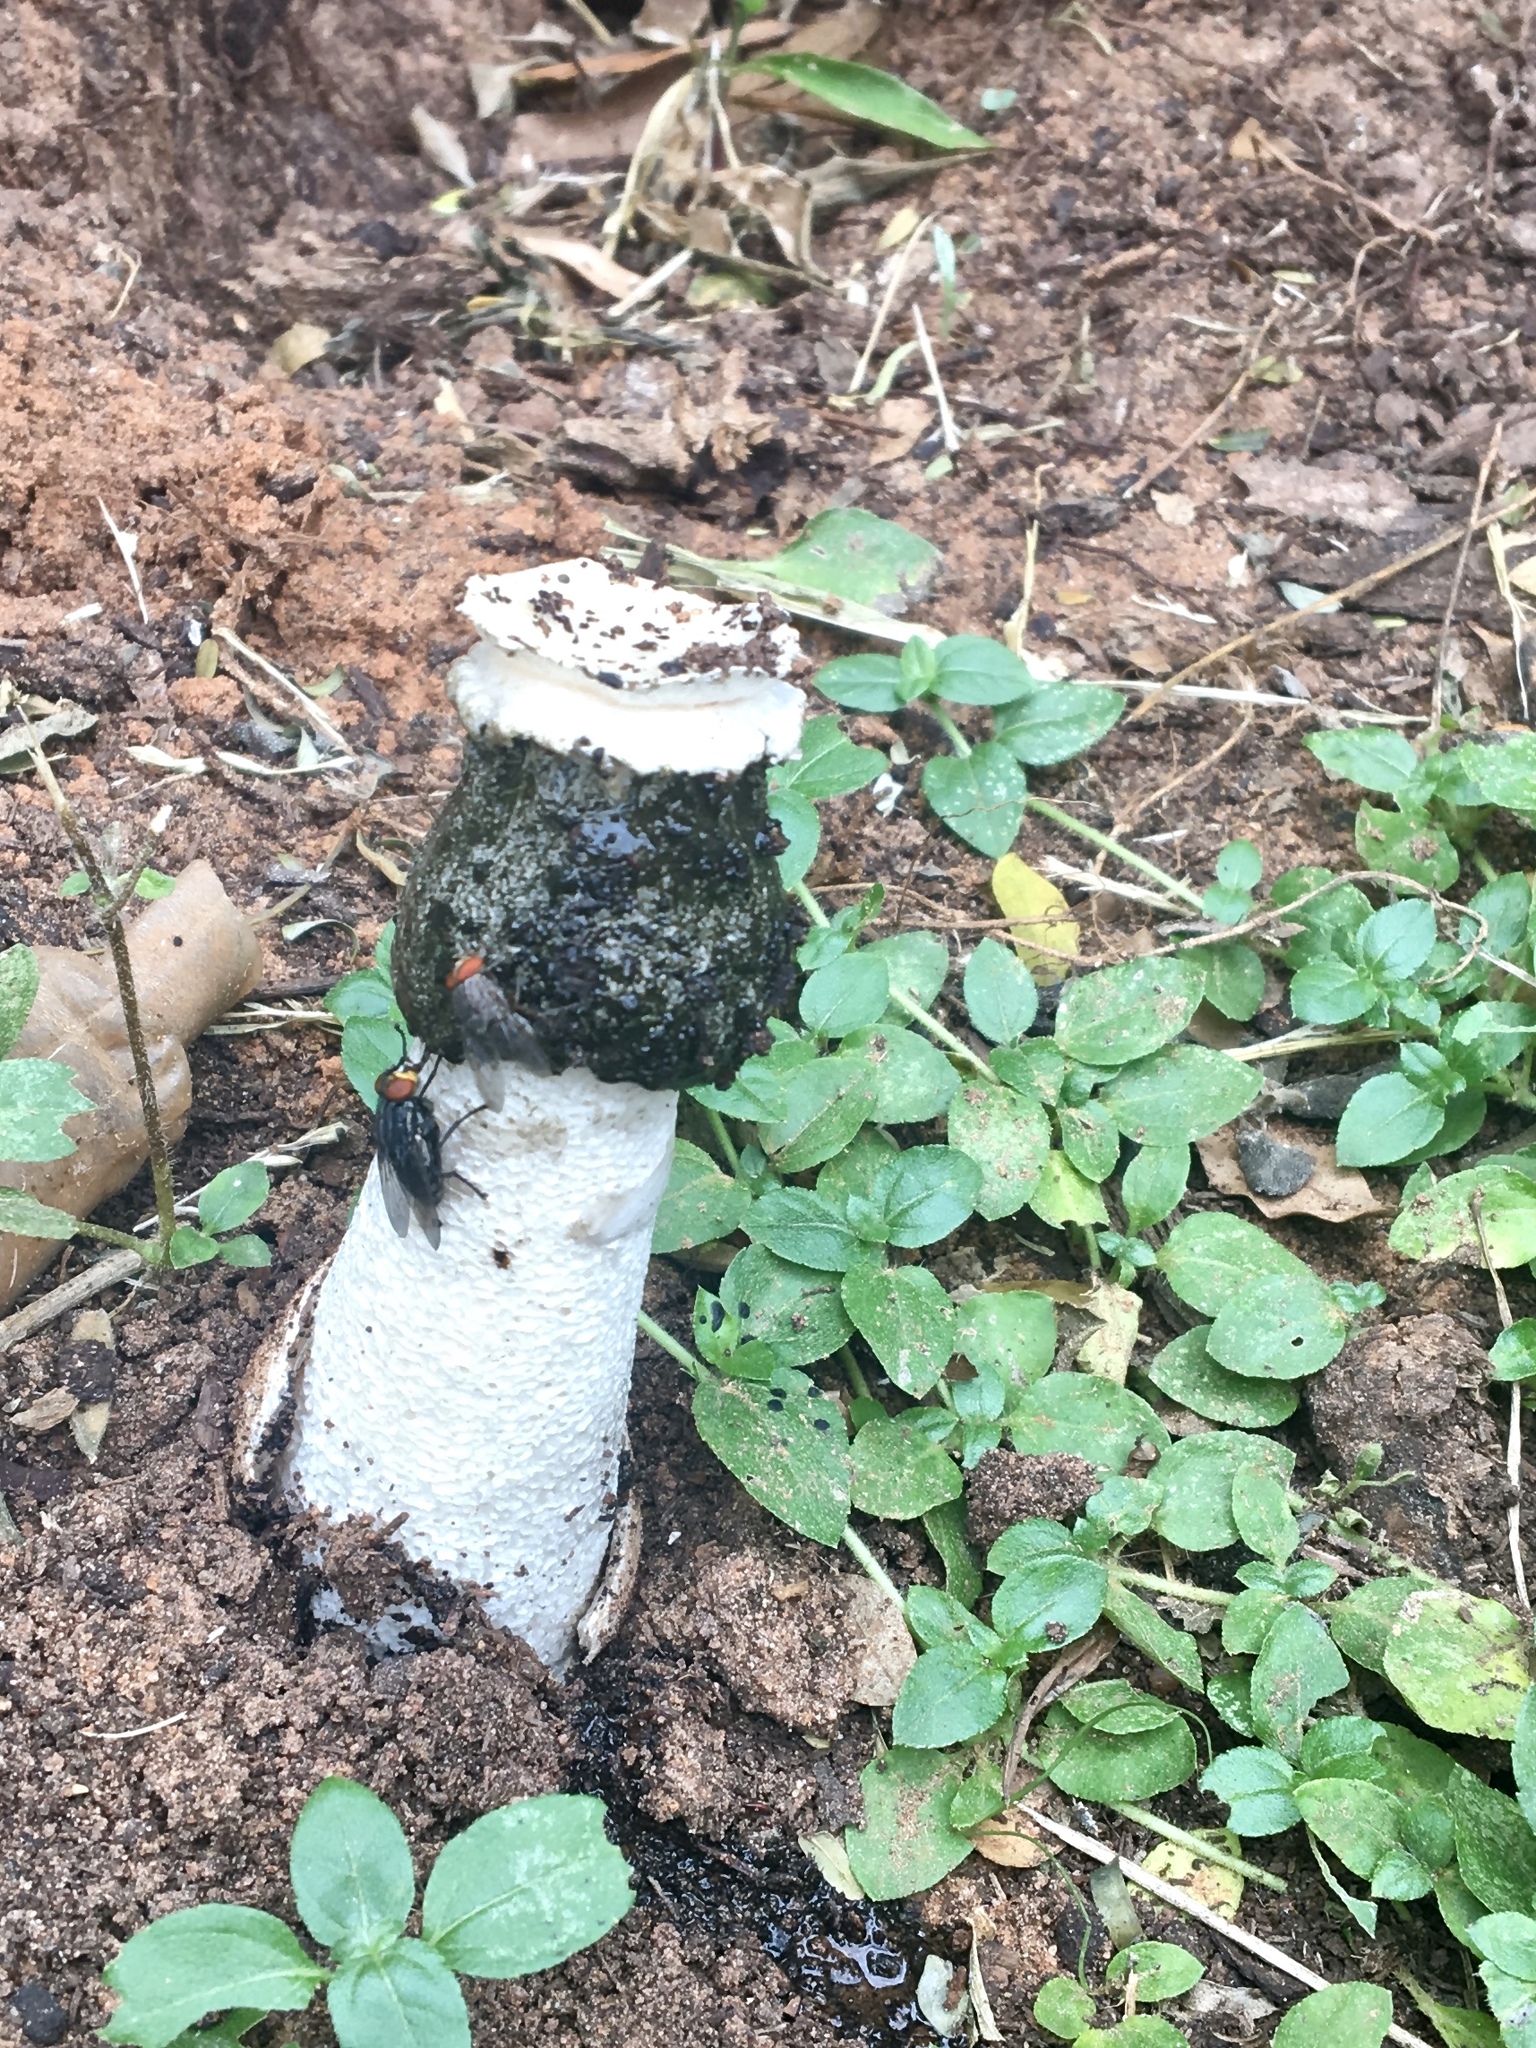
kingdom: Fungi
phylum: Basidiomycota
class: Agaricomycetes
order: Phallales
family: Phallaceae
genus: Itajahya
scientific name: Itajahya galericulata
